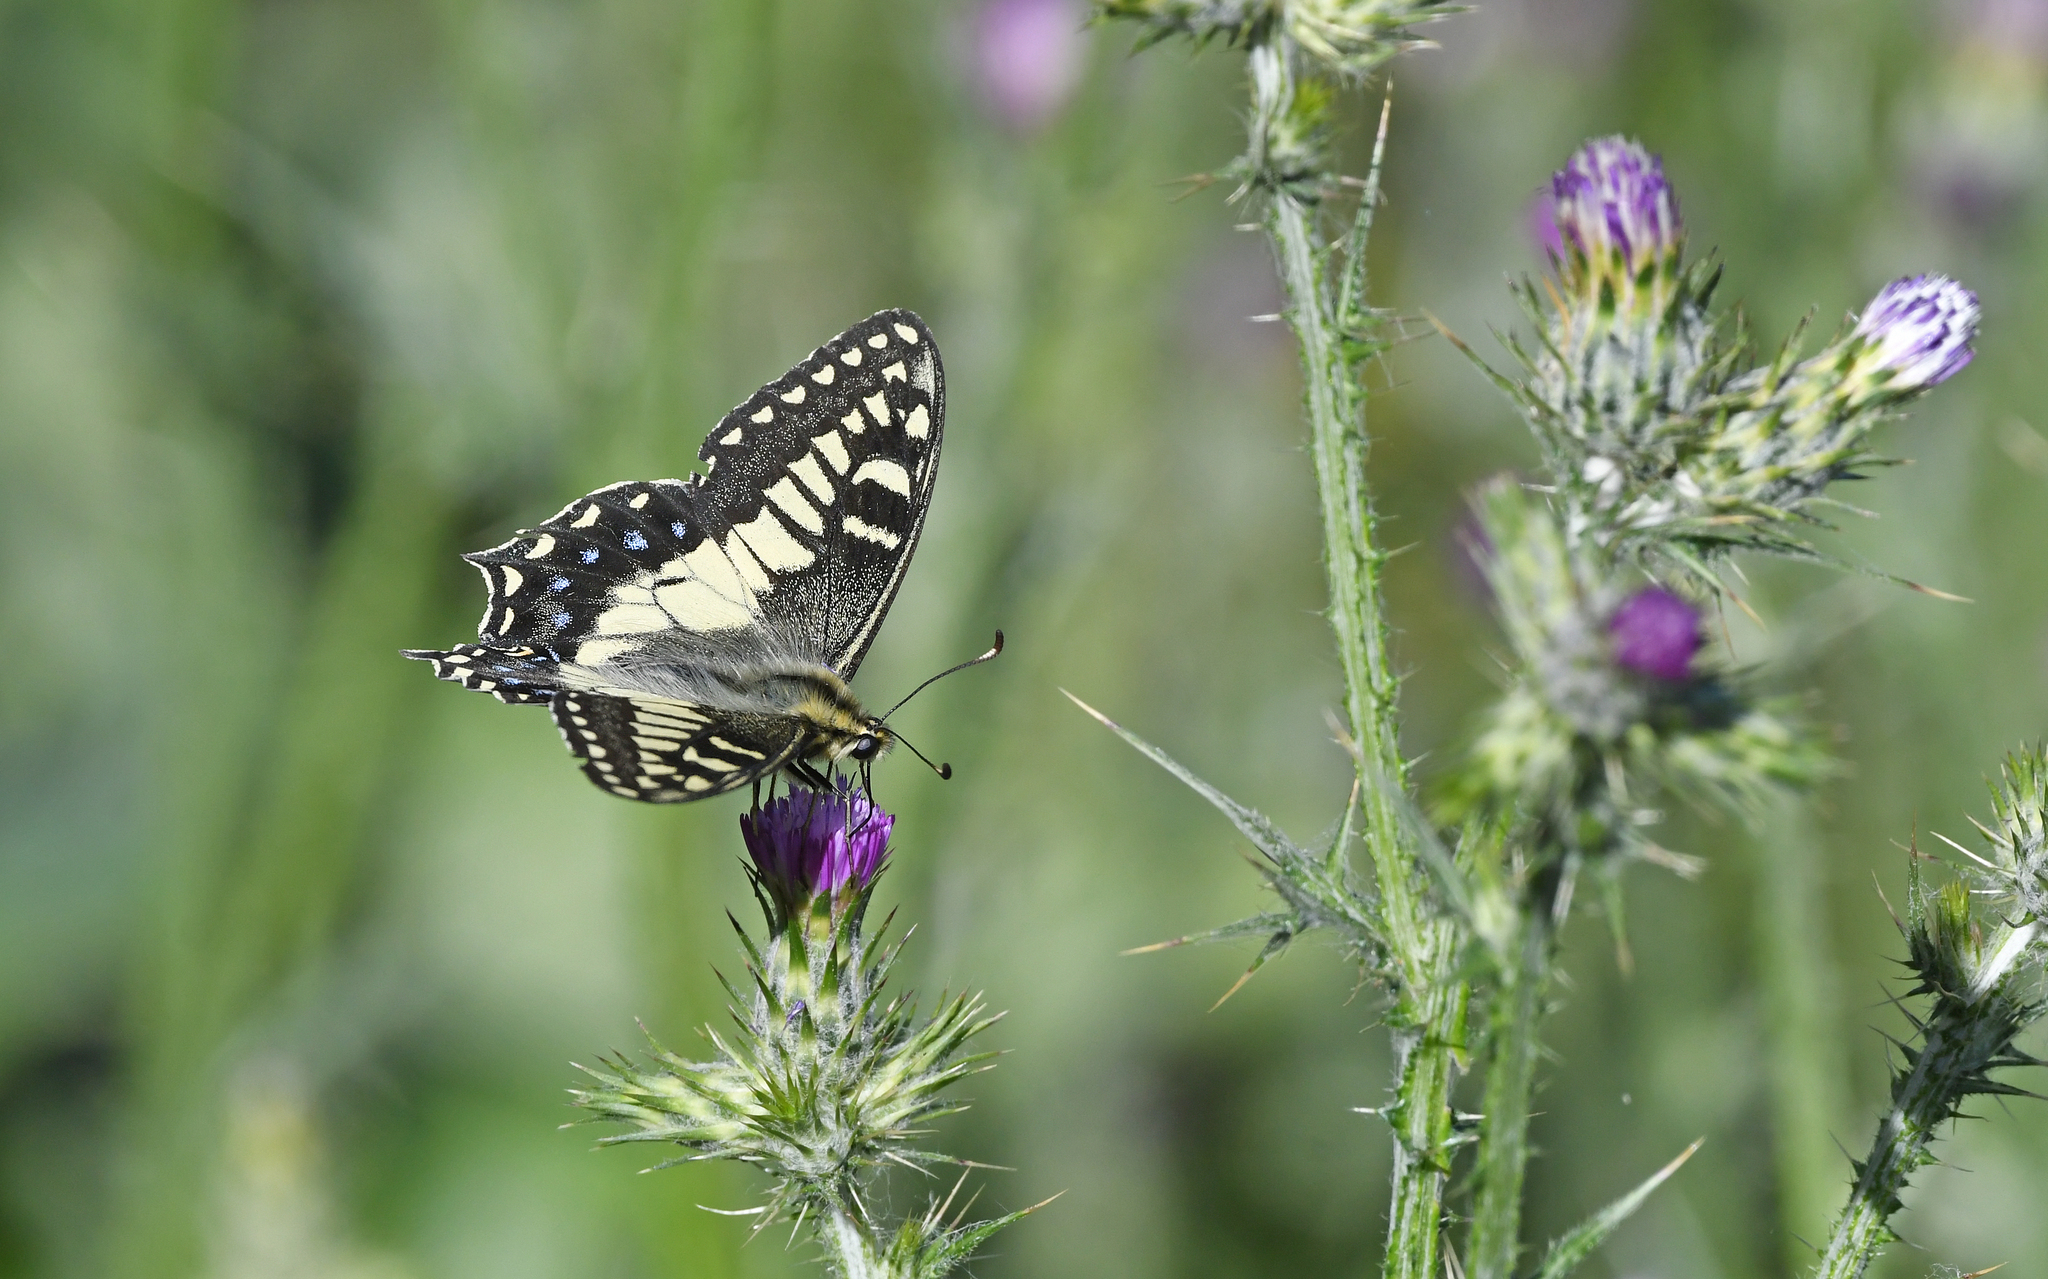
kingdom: Animalia
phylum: Arthropoda
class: Insecta
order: Lepidoptera
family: Papilionidae
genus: Papilio
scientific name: Papilio hospiton
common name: Corsican swallowtail
